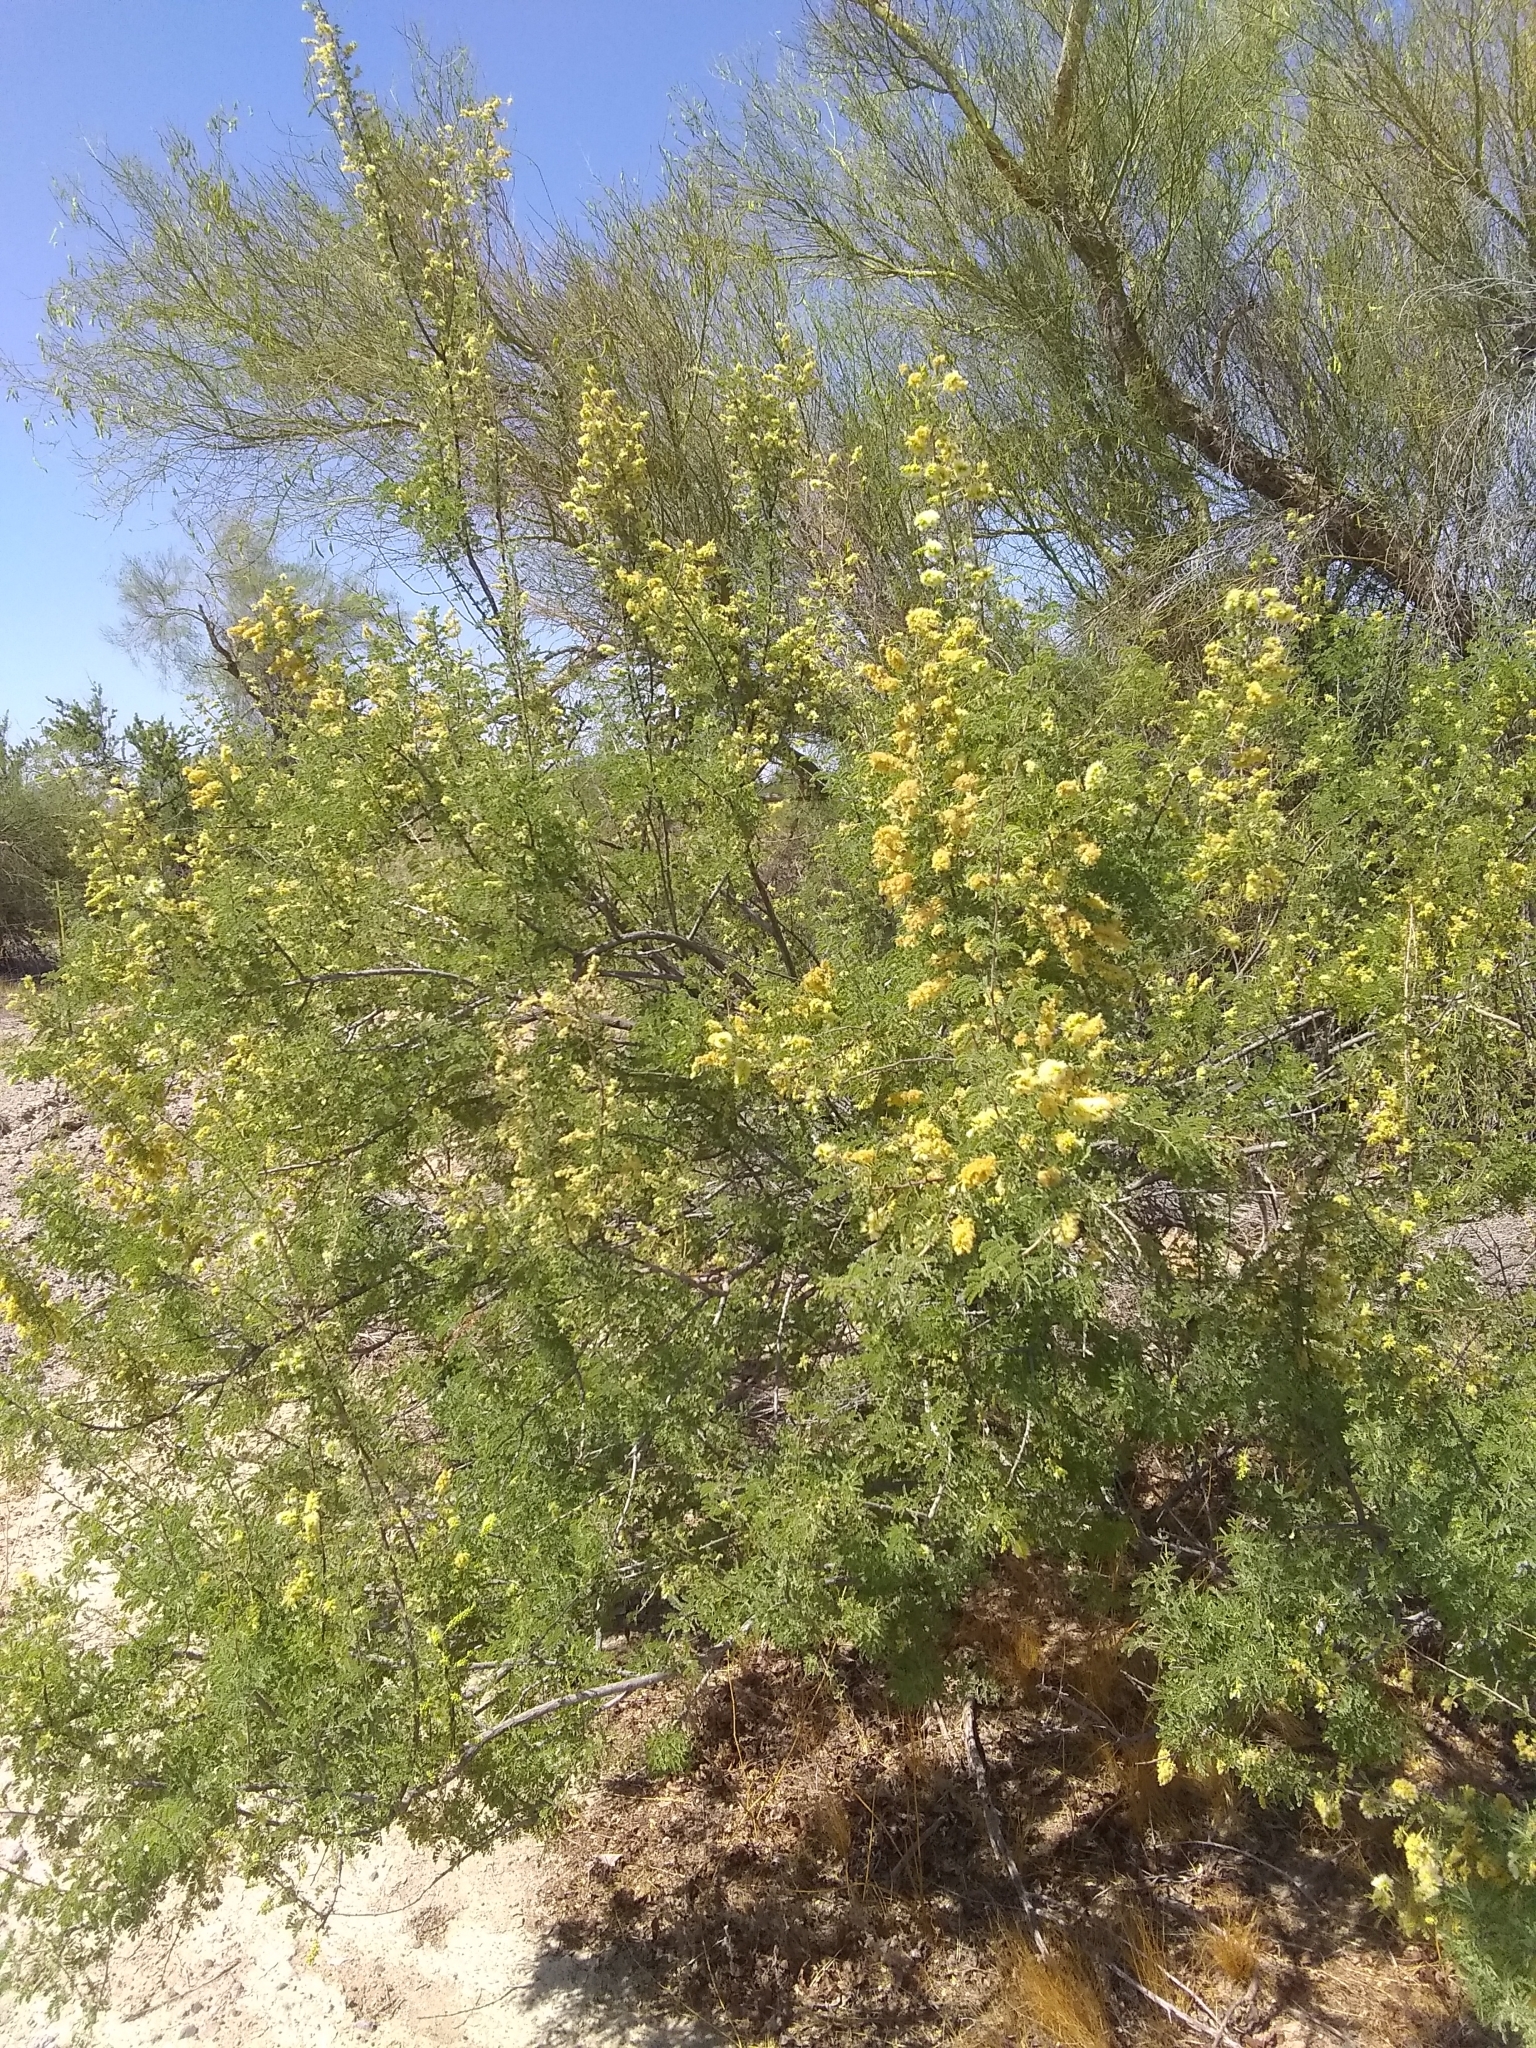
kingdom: Plantae
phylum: Tracheophyta
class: Magnoliopsida
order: Fabales
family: Fabaceae
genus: Senegalia
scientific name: Senegalia greggii
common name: Texas-mimosa
